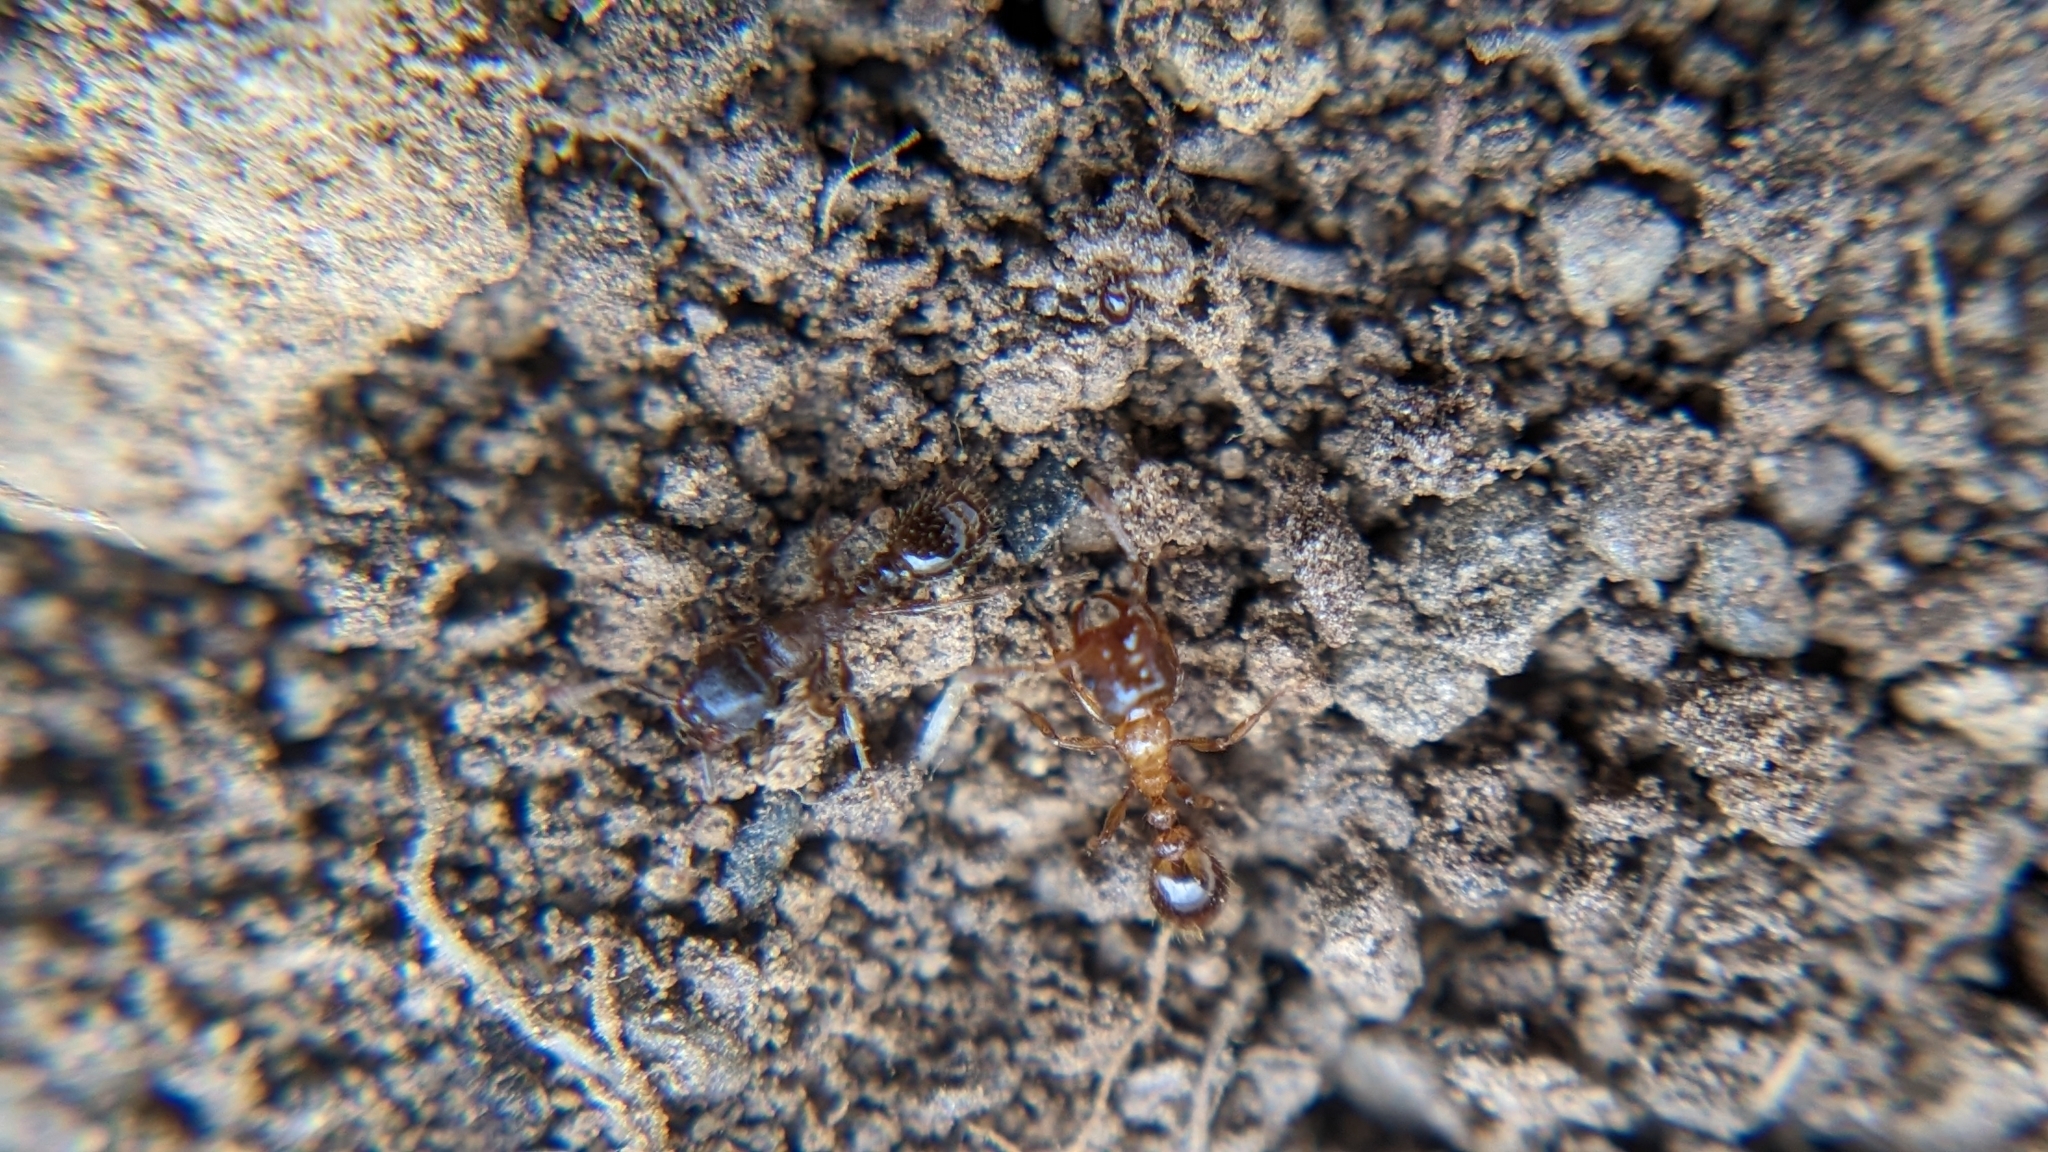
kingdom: Animalia
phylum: Arthropoda
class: Insecta
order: Hymenoptera
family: Formicidae
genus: Strongylognathus
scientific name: Strongylognathus testaceus
